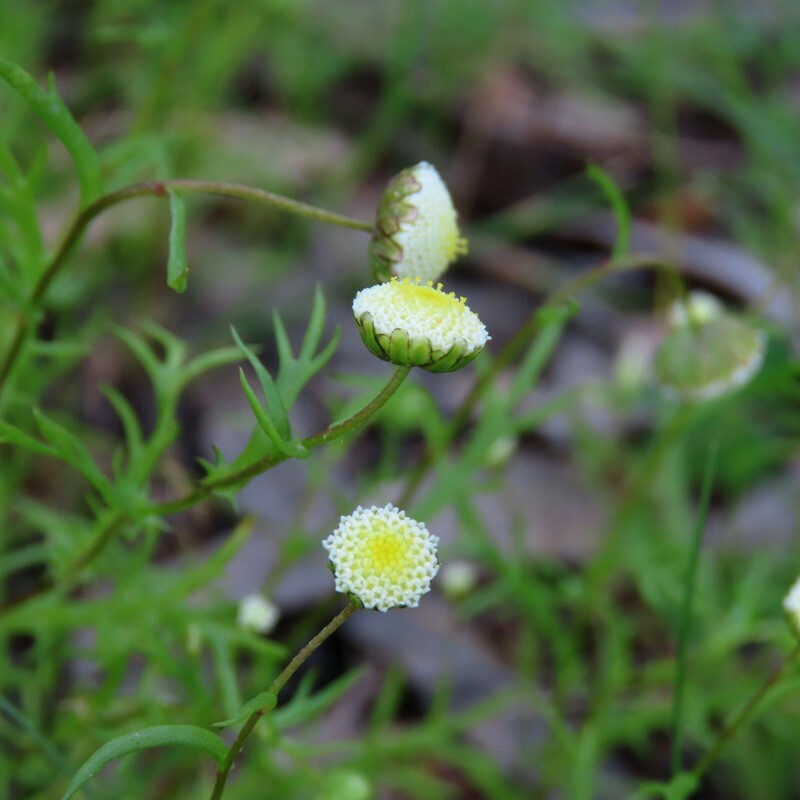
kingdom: Plantae
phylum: Tracheophyta
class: Magnoliopsida
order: Asterales
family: Asteraceae
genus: Cotula
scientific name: Cotula bipinnata
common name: Ferny buttonweed
